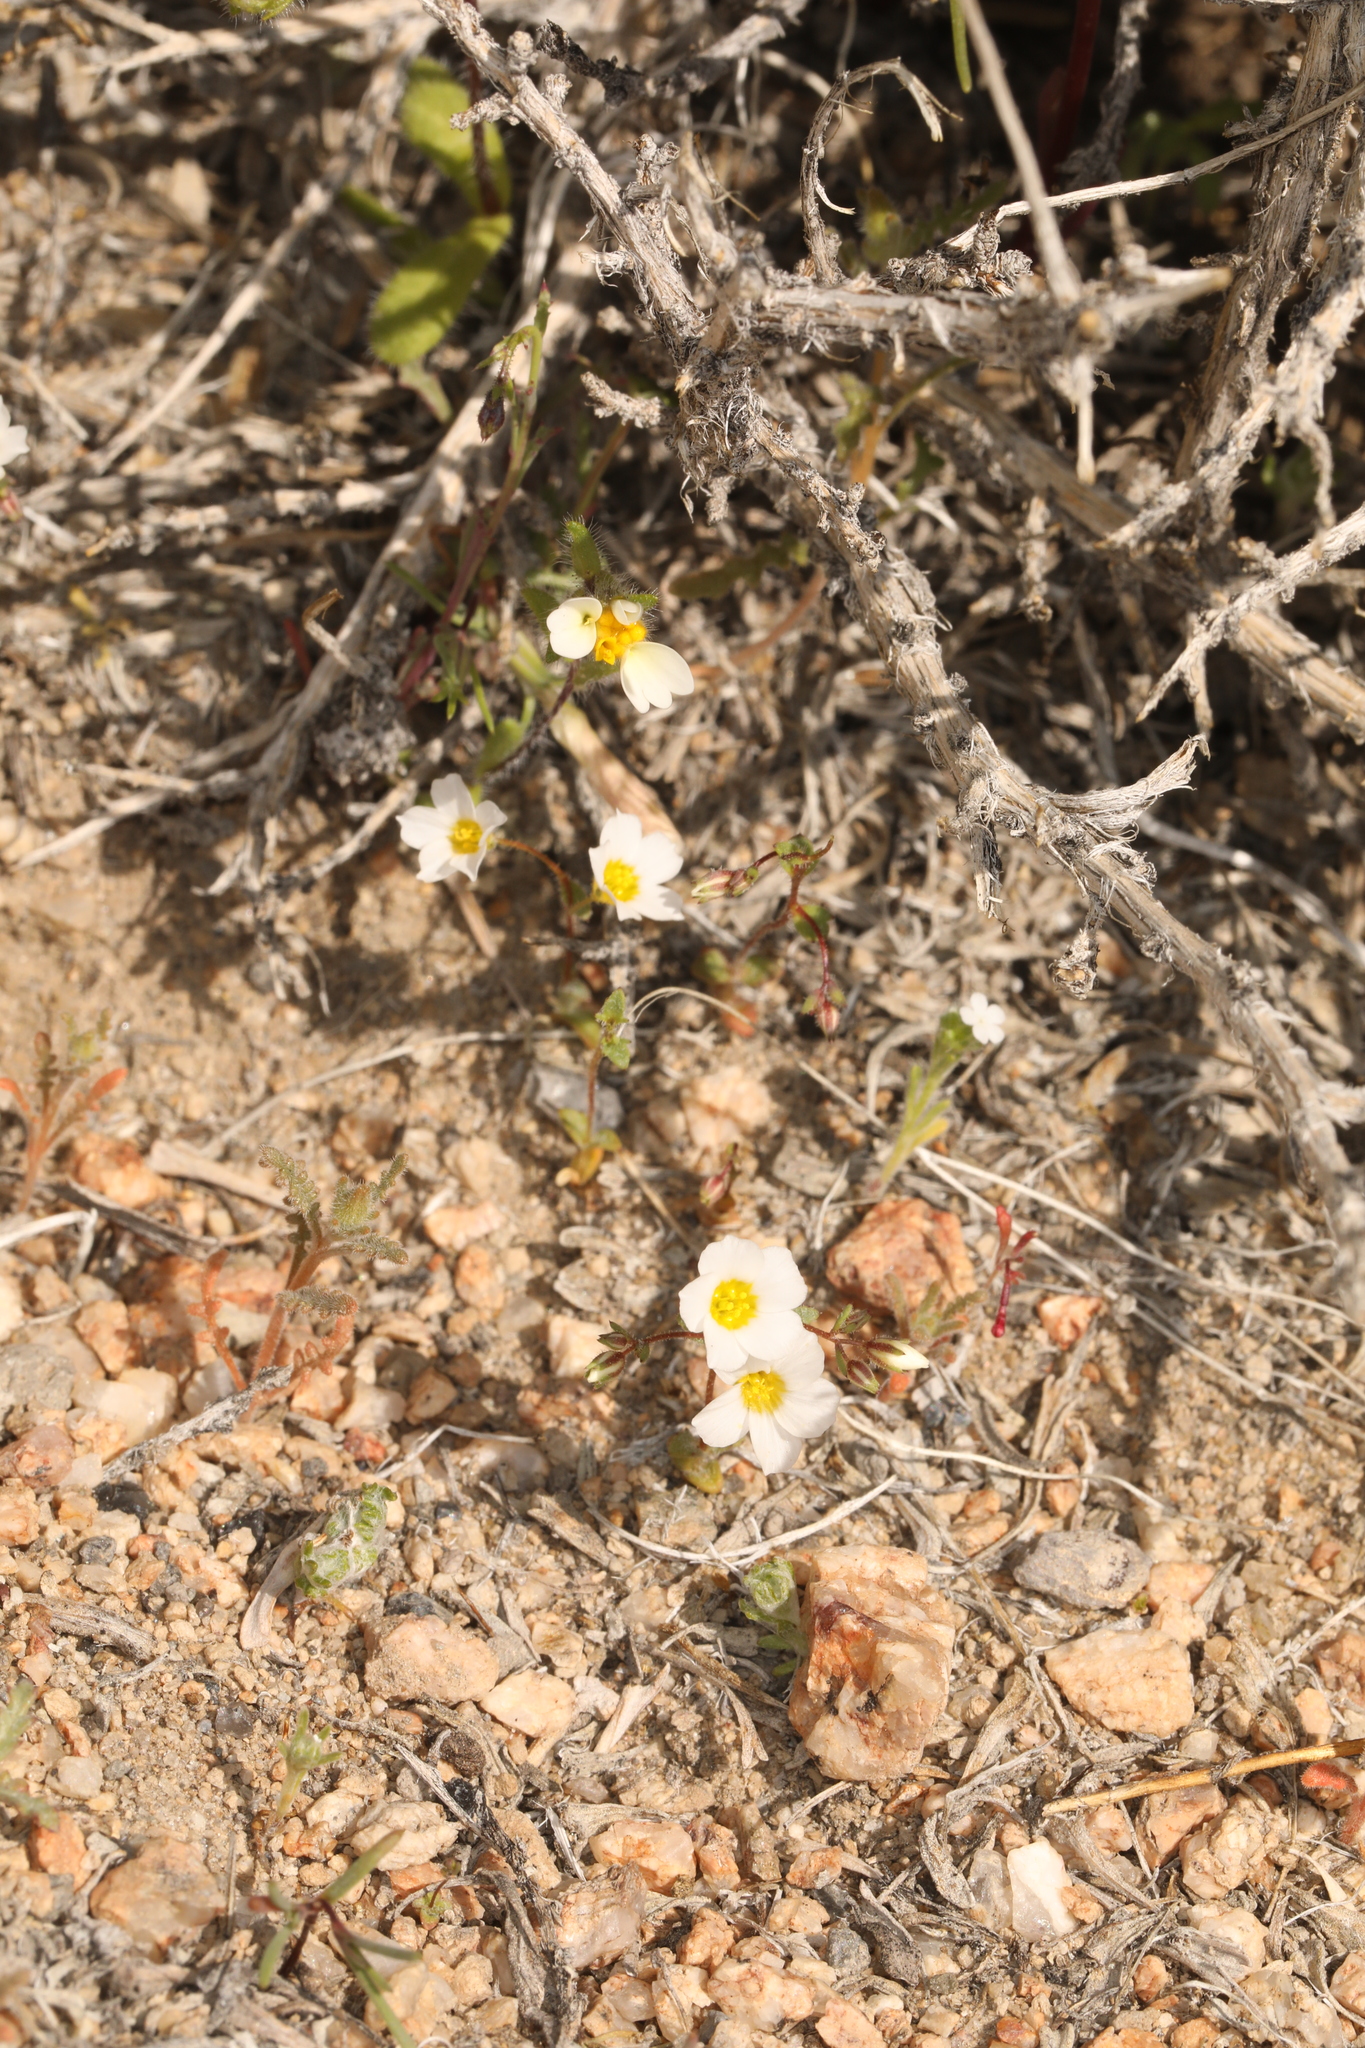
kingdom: Plantae
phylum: Tracheophyta
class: Magnoliopsida
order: Ericales
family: Polemoniaceae
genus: Linanthus
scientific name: Linanthus inyoensis
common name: Inyo gilia
